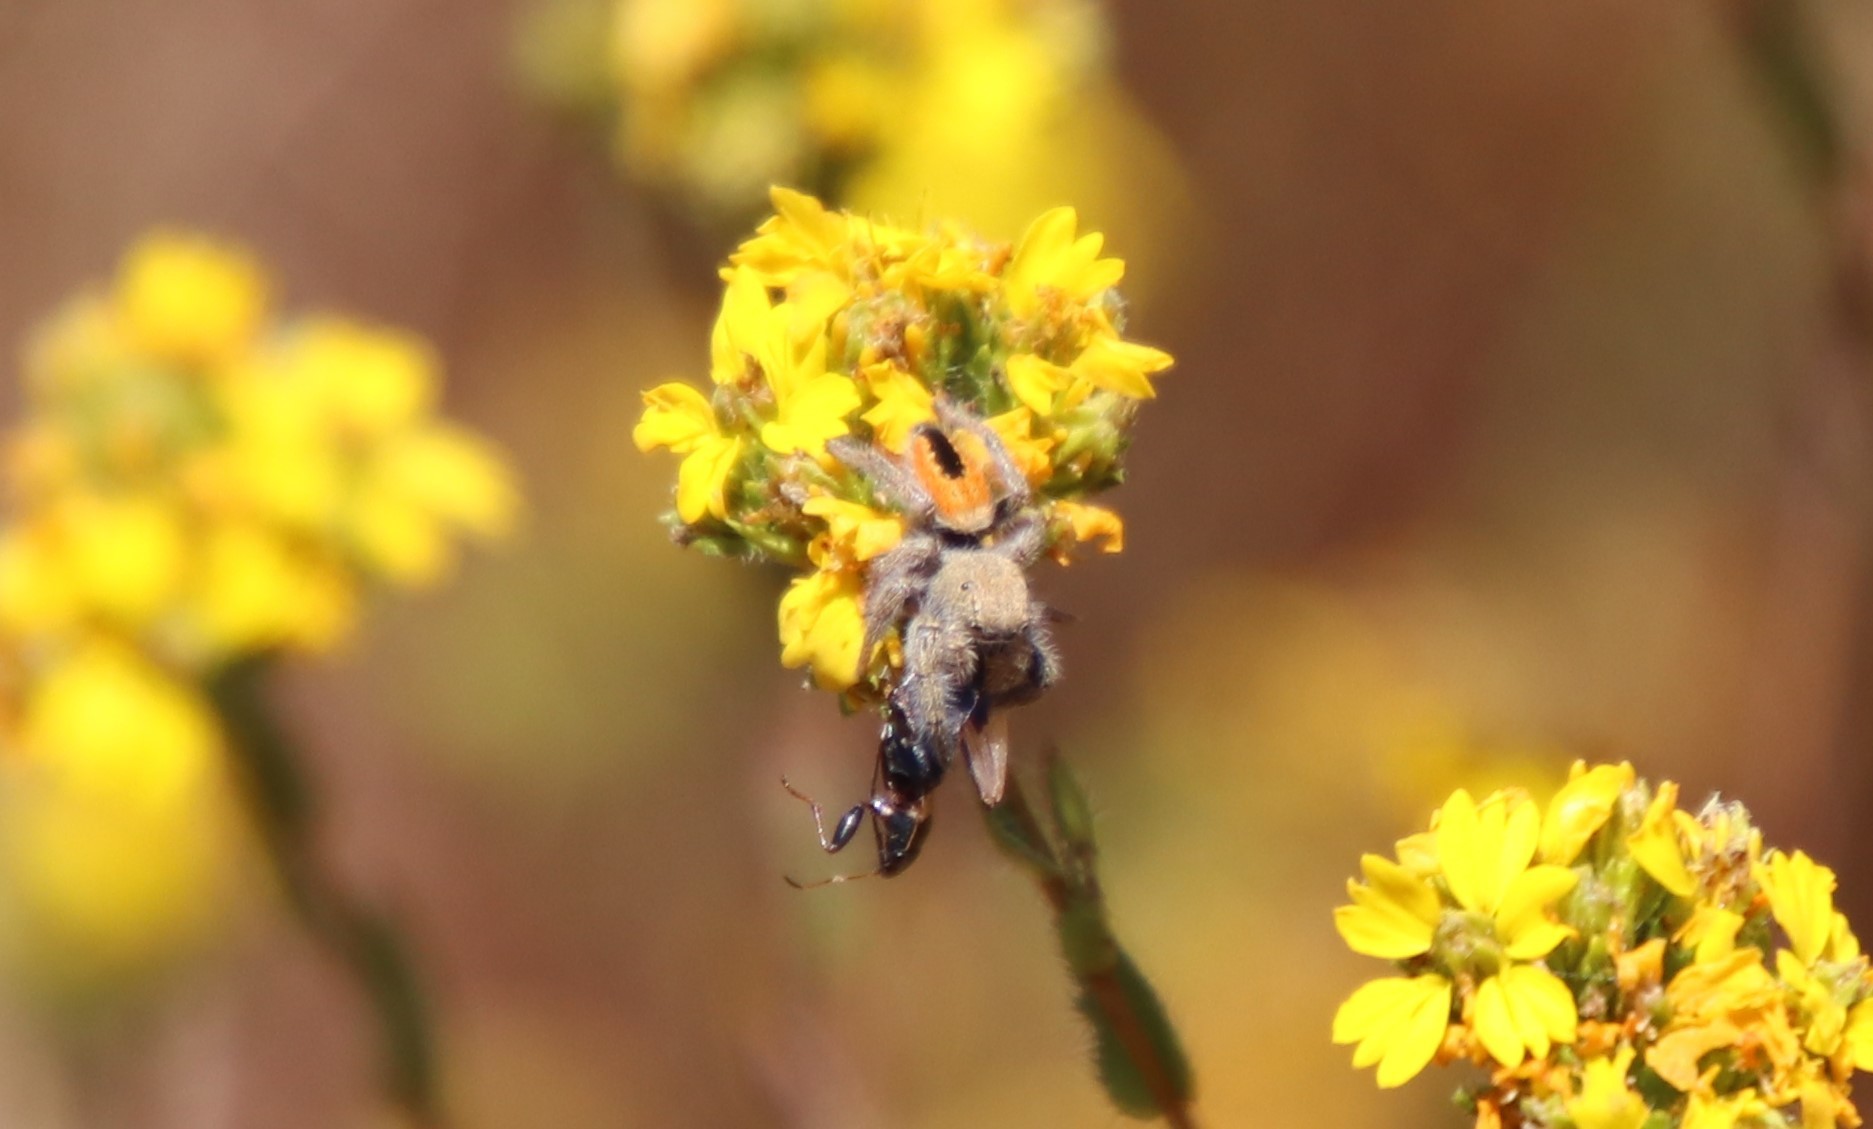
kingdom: Animalia
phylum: Arthropoda
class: Arachnida
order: Araneae
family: Salticidae
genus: Phidippus
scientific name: Phidippus ardens
